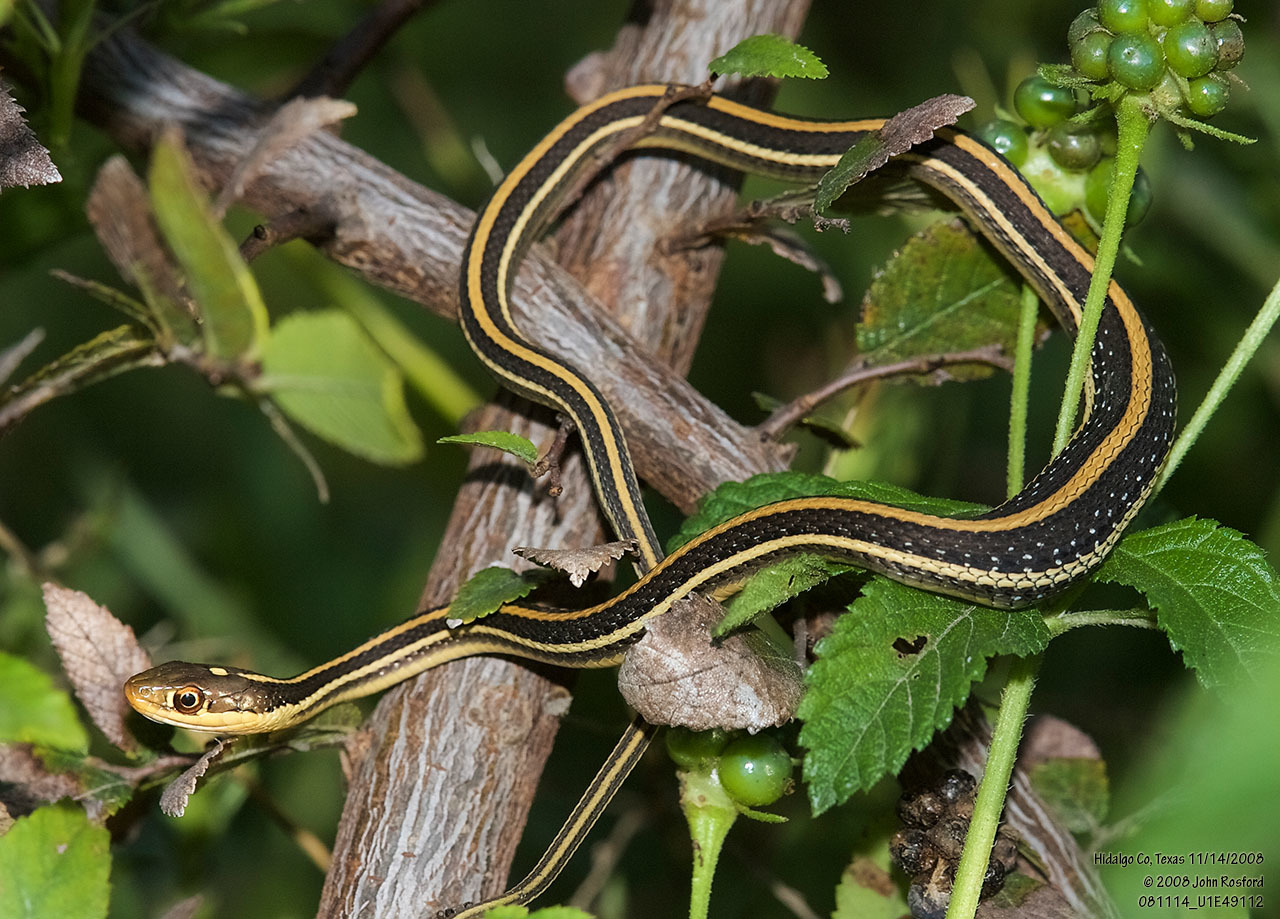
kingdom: Animalia
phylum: Chordata
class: Squamata
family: Colubridae
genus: Thamnophis
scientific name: Thamnophis proximus
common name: Western ribbon snake
